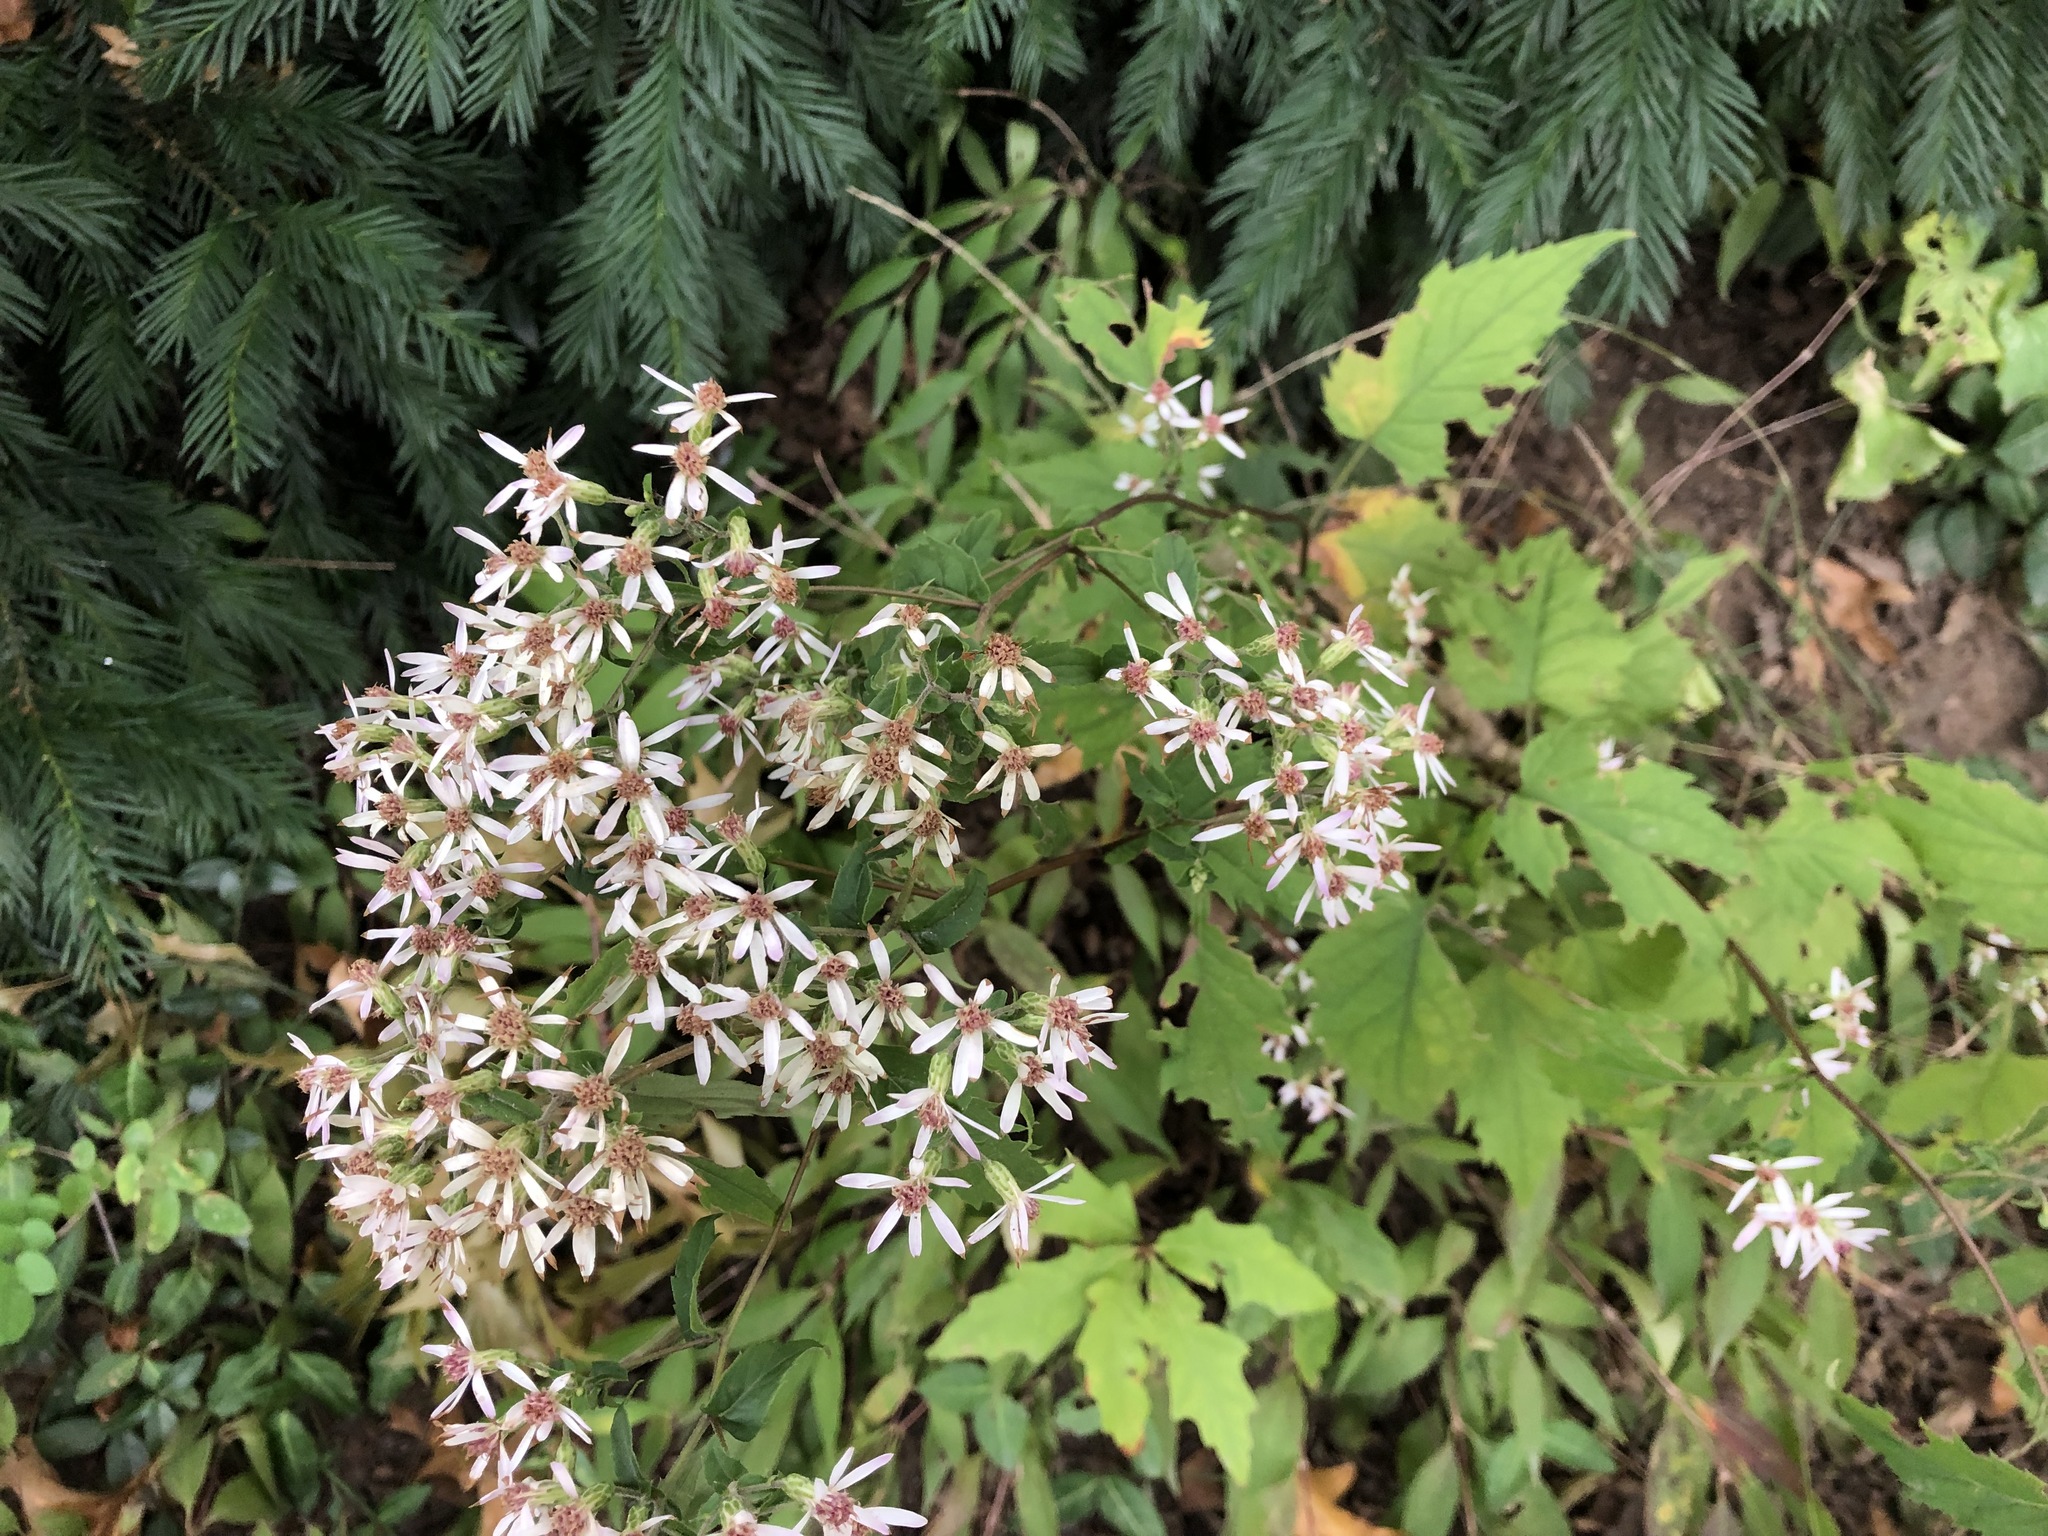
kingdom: Plantae
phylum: Tracheophyta
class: Magnoliopsida
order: Asterales
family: Asteraceae
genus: Eurybia
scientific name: Eurybia divaricata
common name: White wood aster
